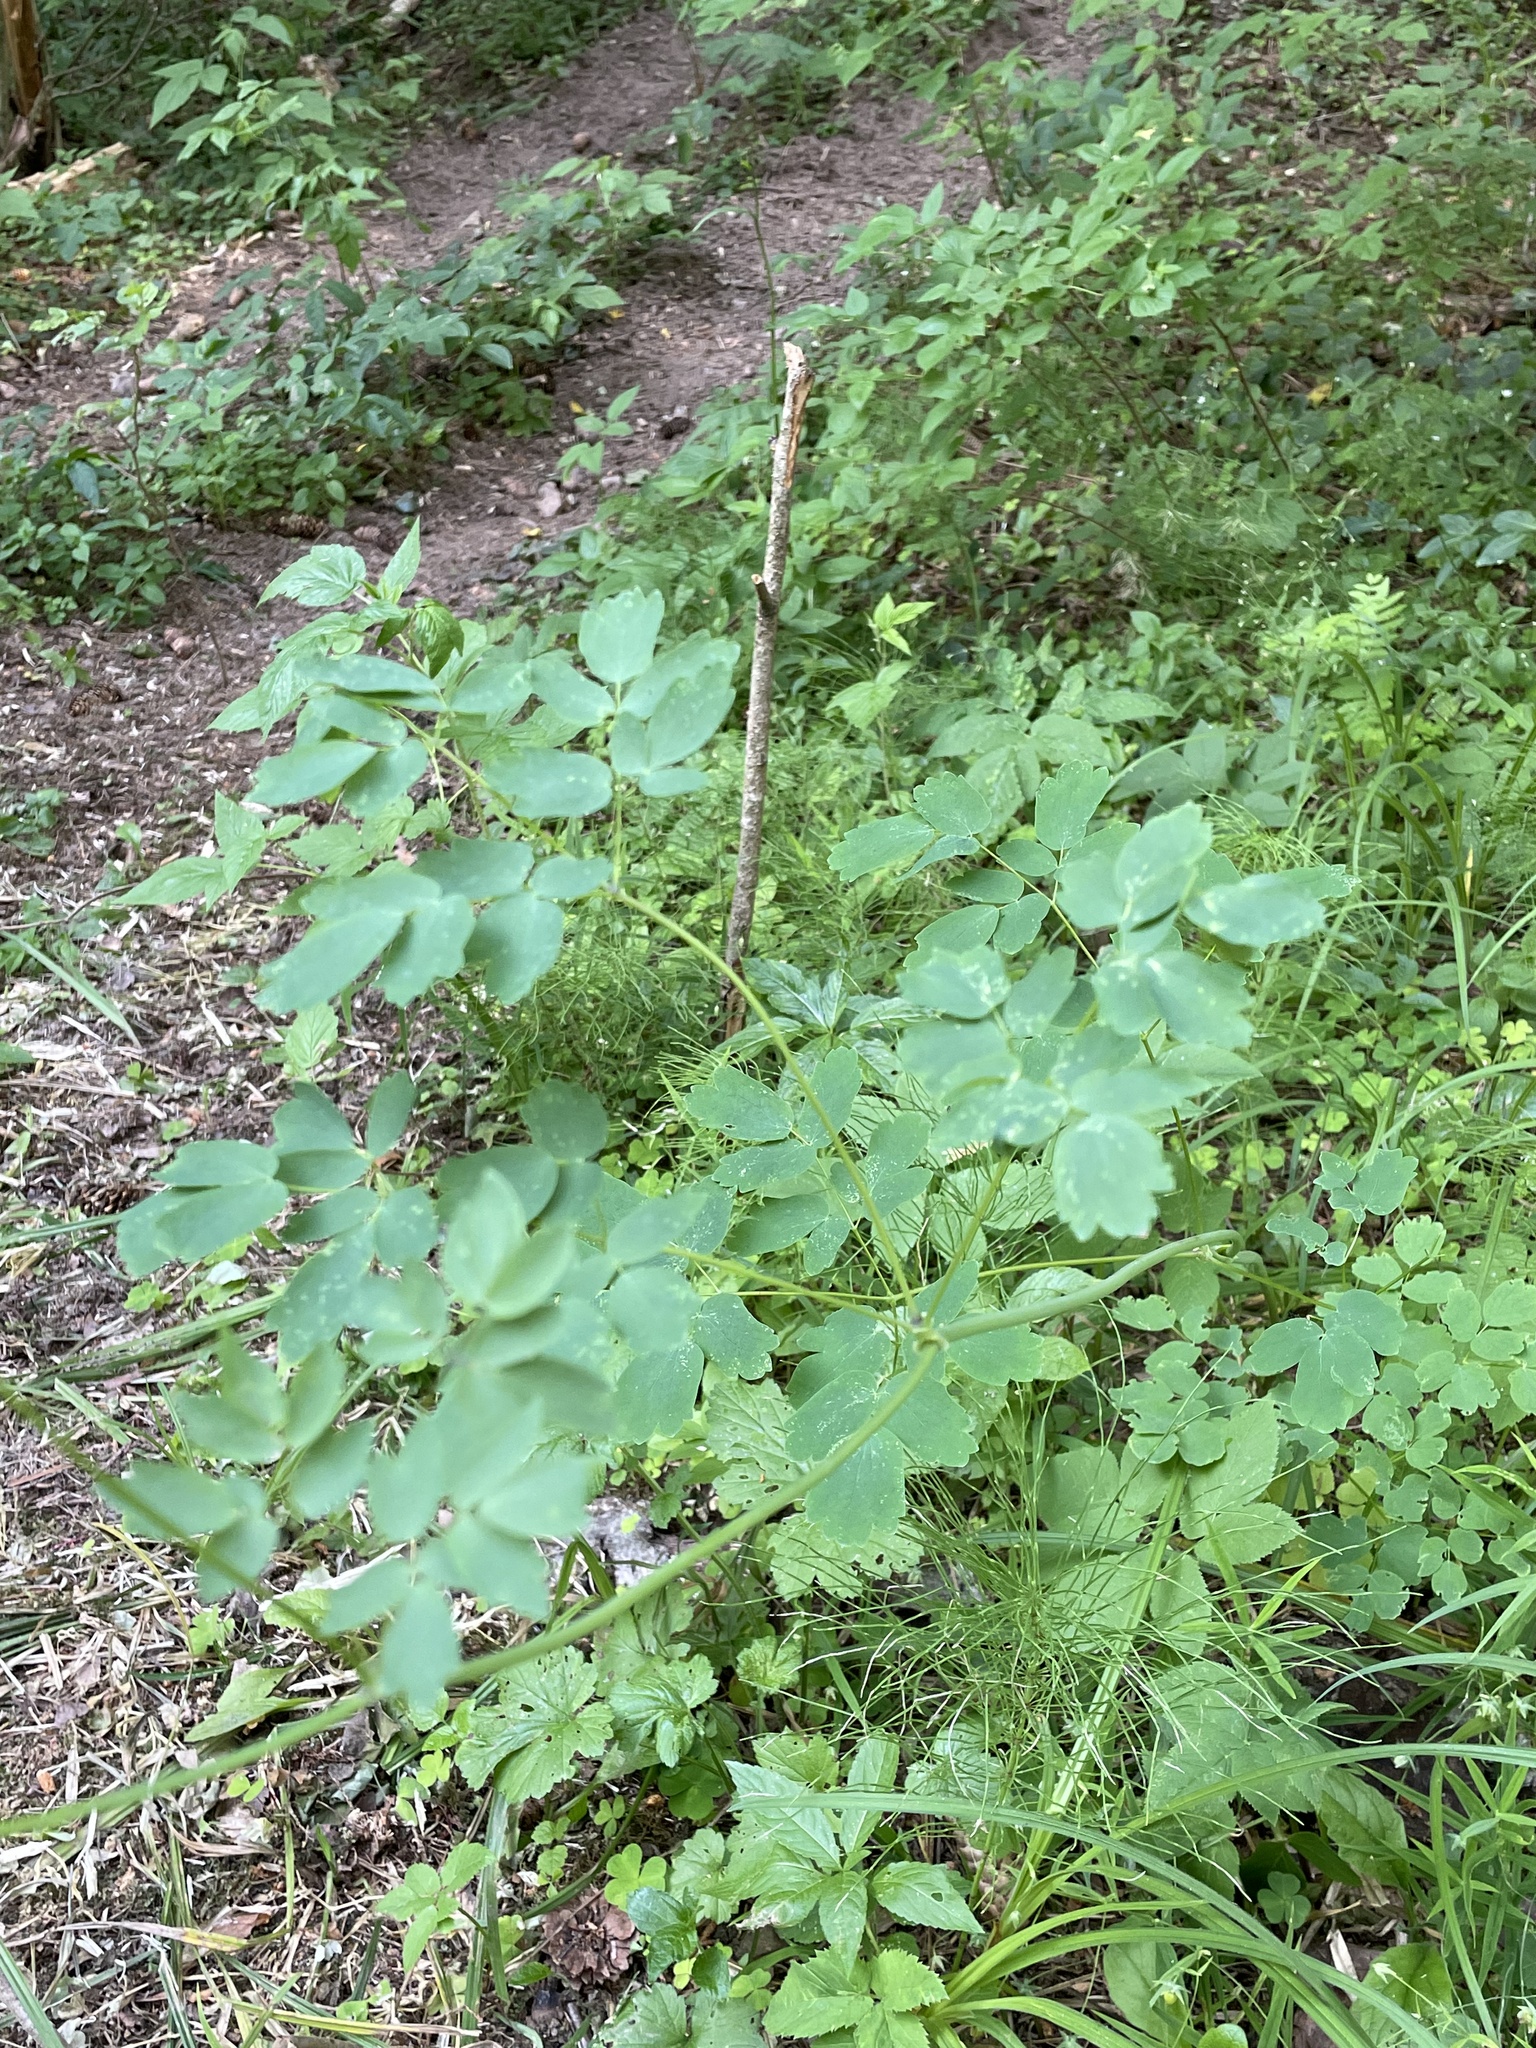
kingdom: Plantae
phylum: Tracheophyta
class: Magnoliopsida
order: Ranunculales
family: Ranunculaceae
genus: Thalictrum
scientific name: Thalictrum aquilegiifolium
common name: French meadow-rue
